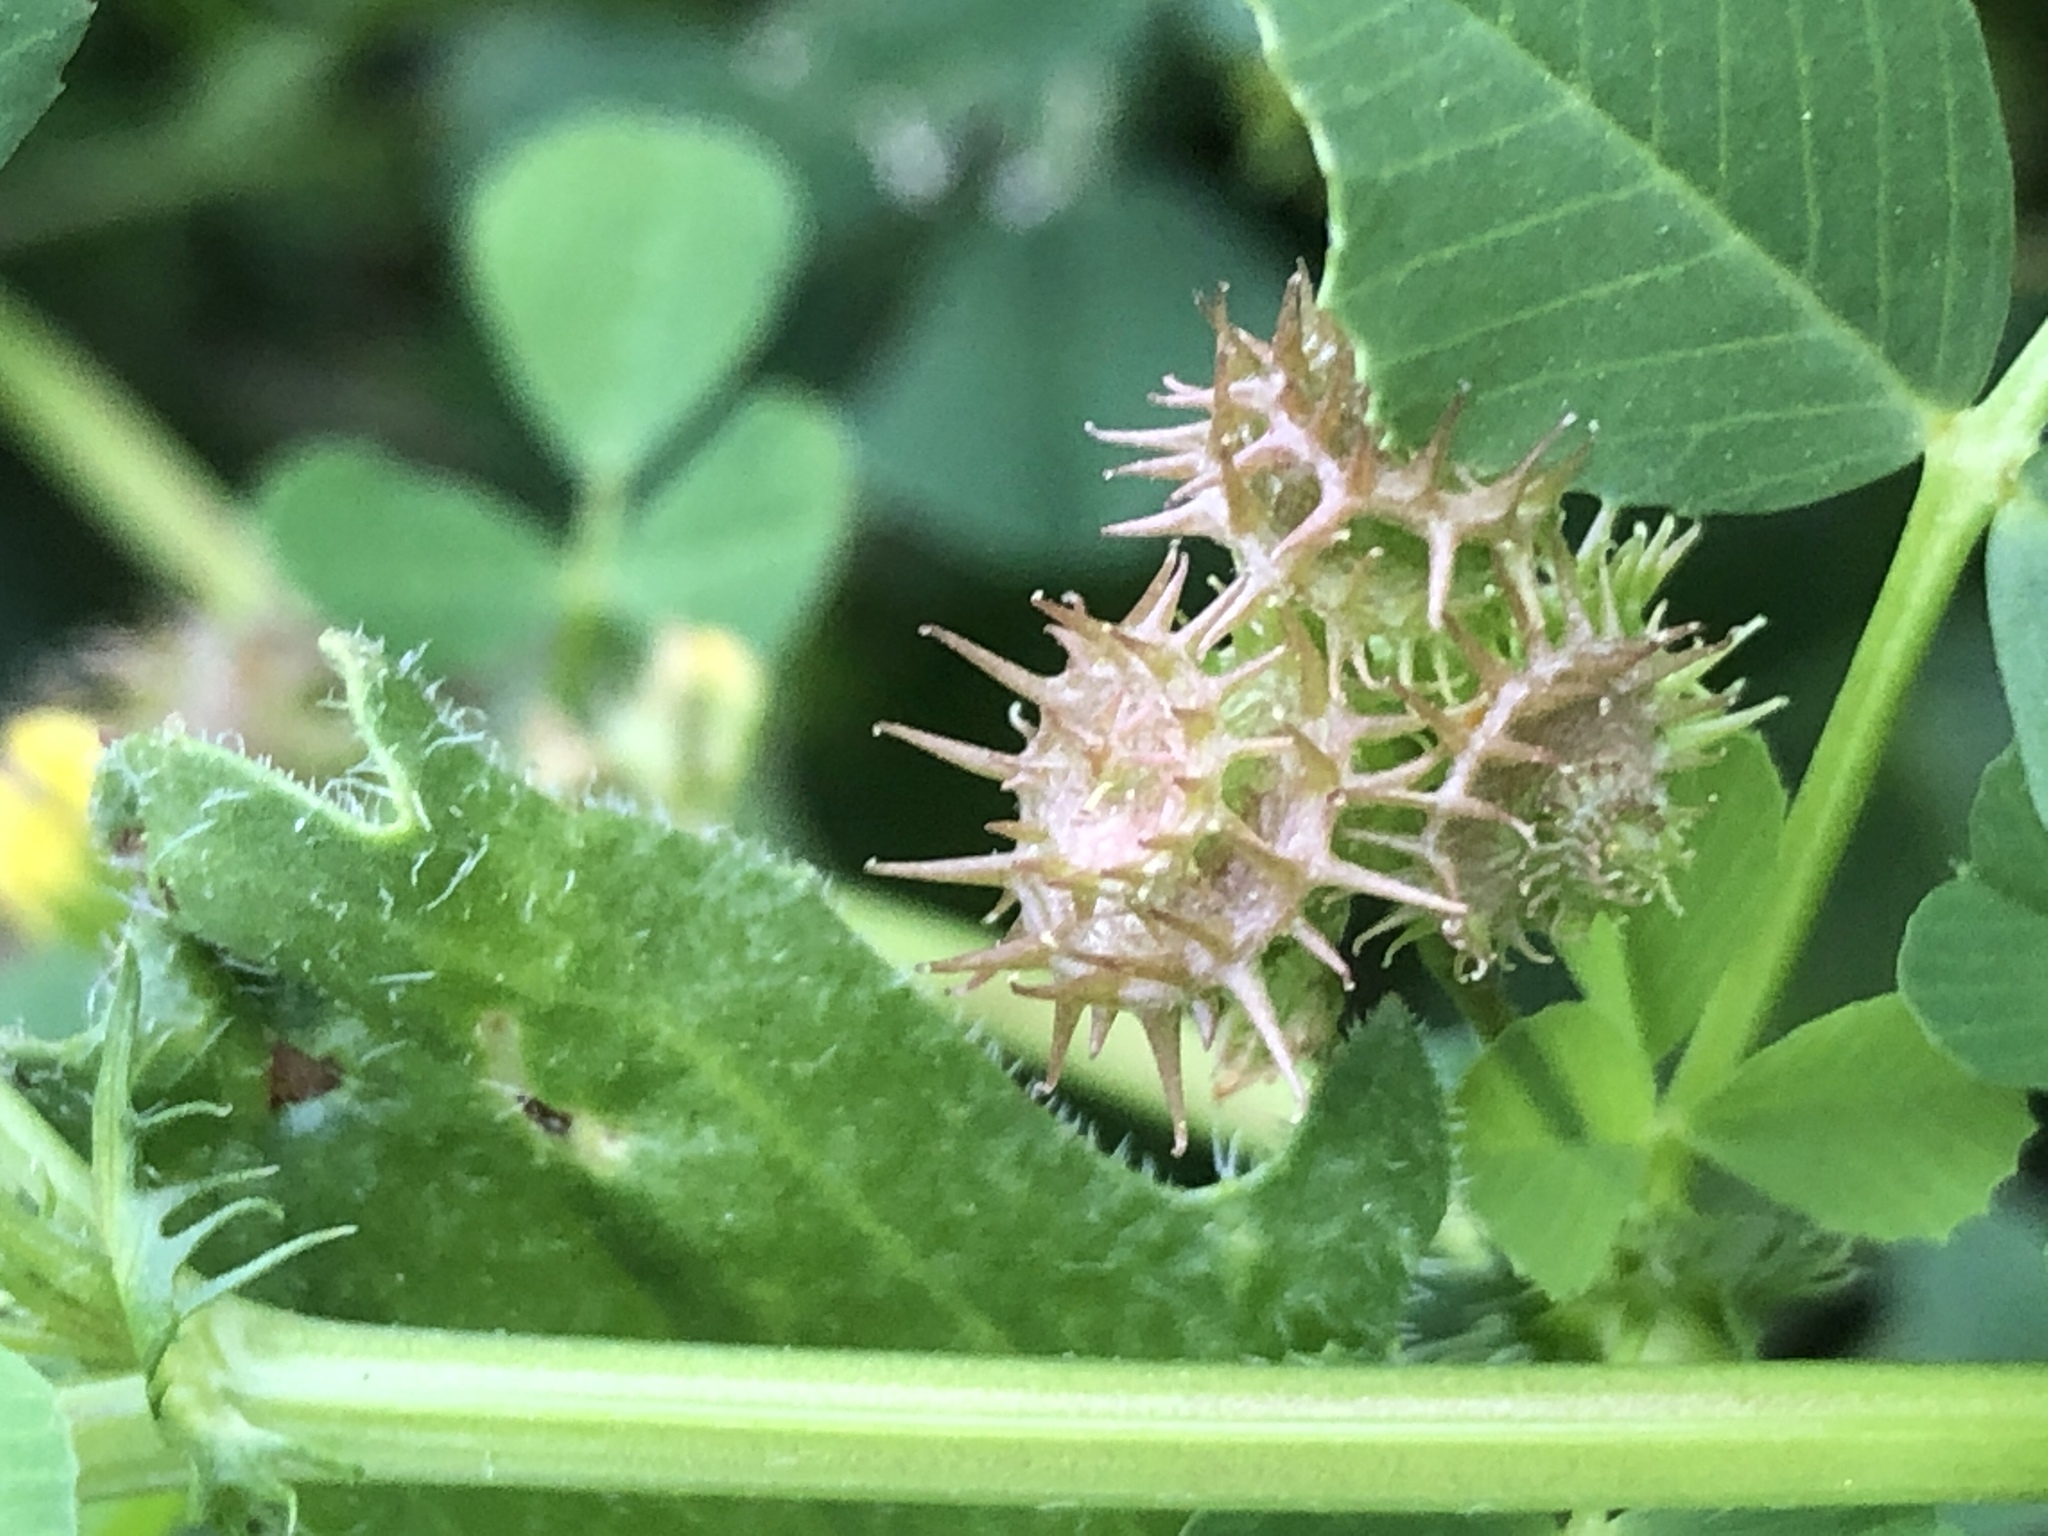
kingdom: Plantae
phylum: Tracheophyta
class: Magnoliopsida
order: Fabales
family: Fabaceae
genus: Medicago
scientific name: Medicago polymorpha
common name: Burclover
